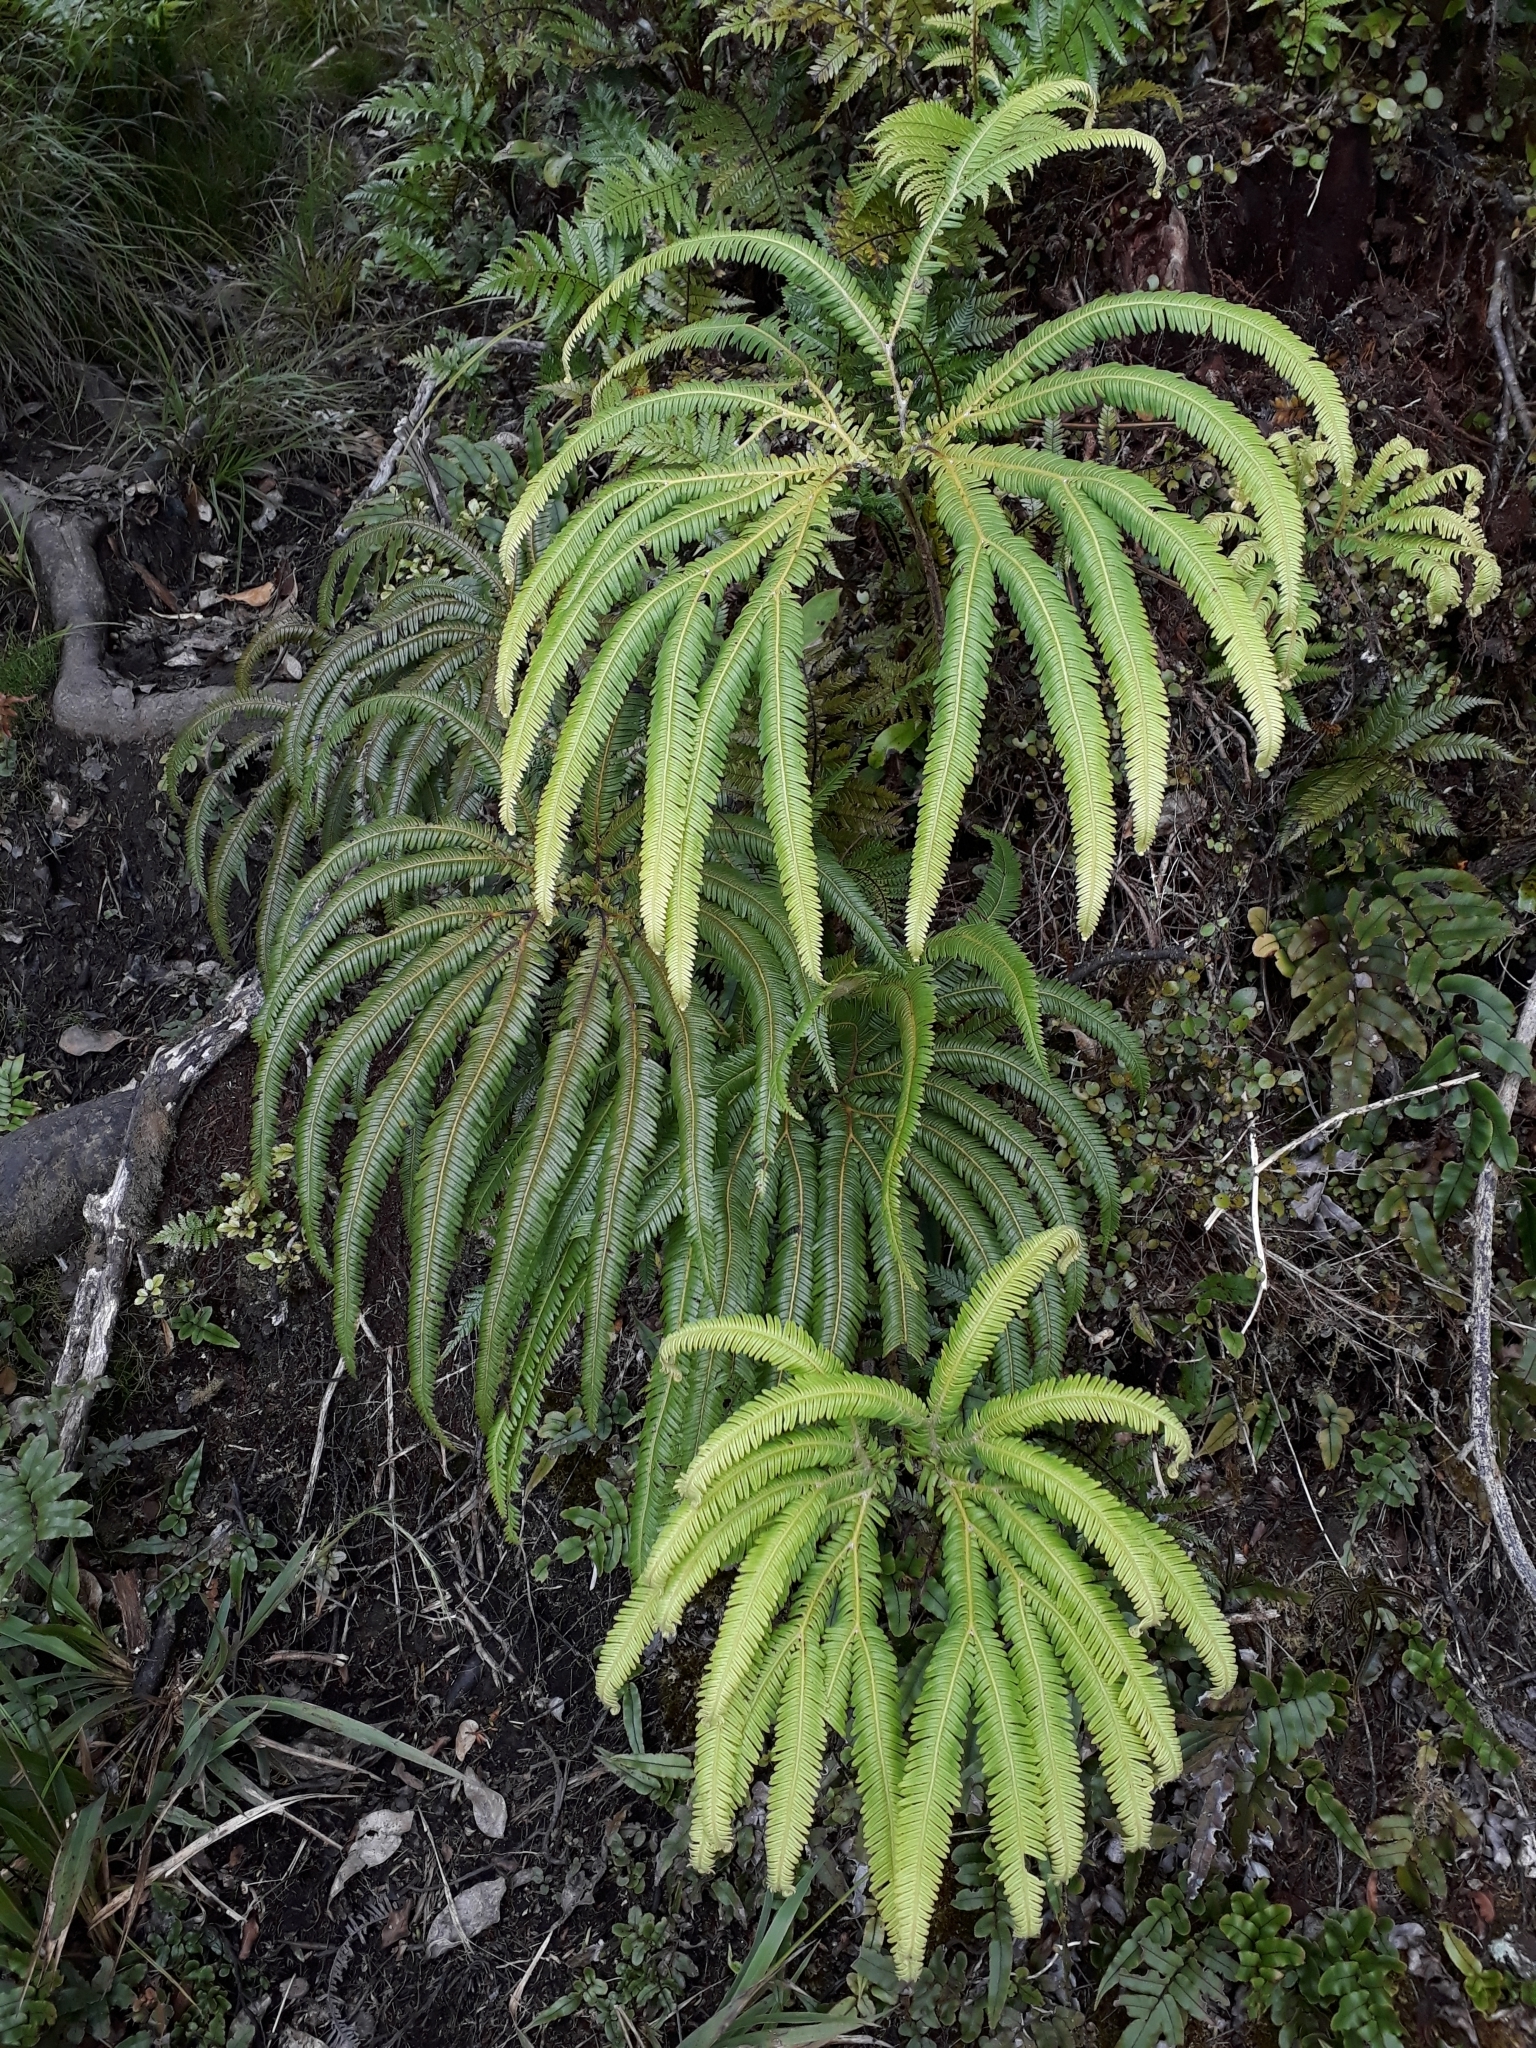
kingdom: Plantae
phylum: Tracheophyta
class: Polypodiopsida
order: Gleicheniales
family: Gleicheniaceae
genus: Sticherus
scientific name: Sticherus cunninghamii
